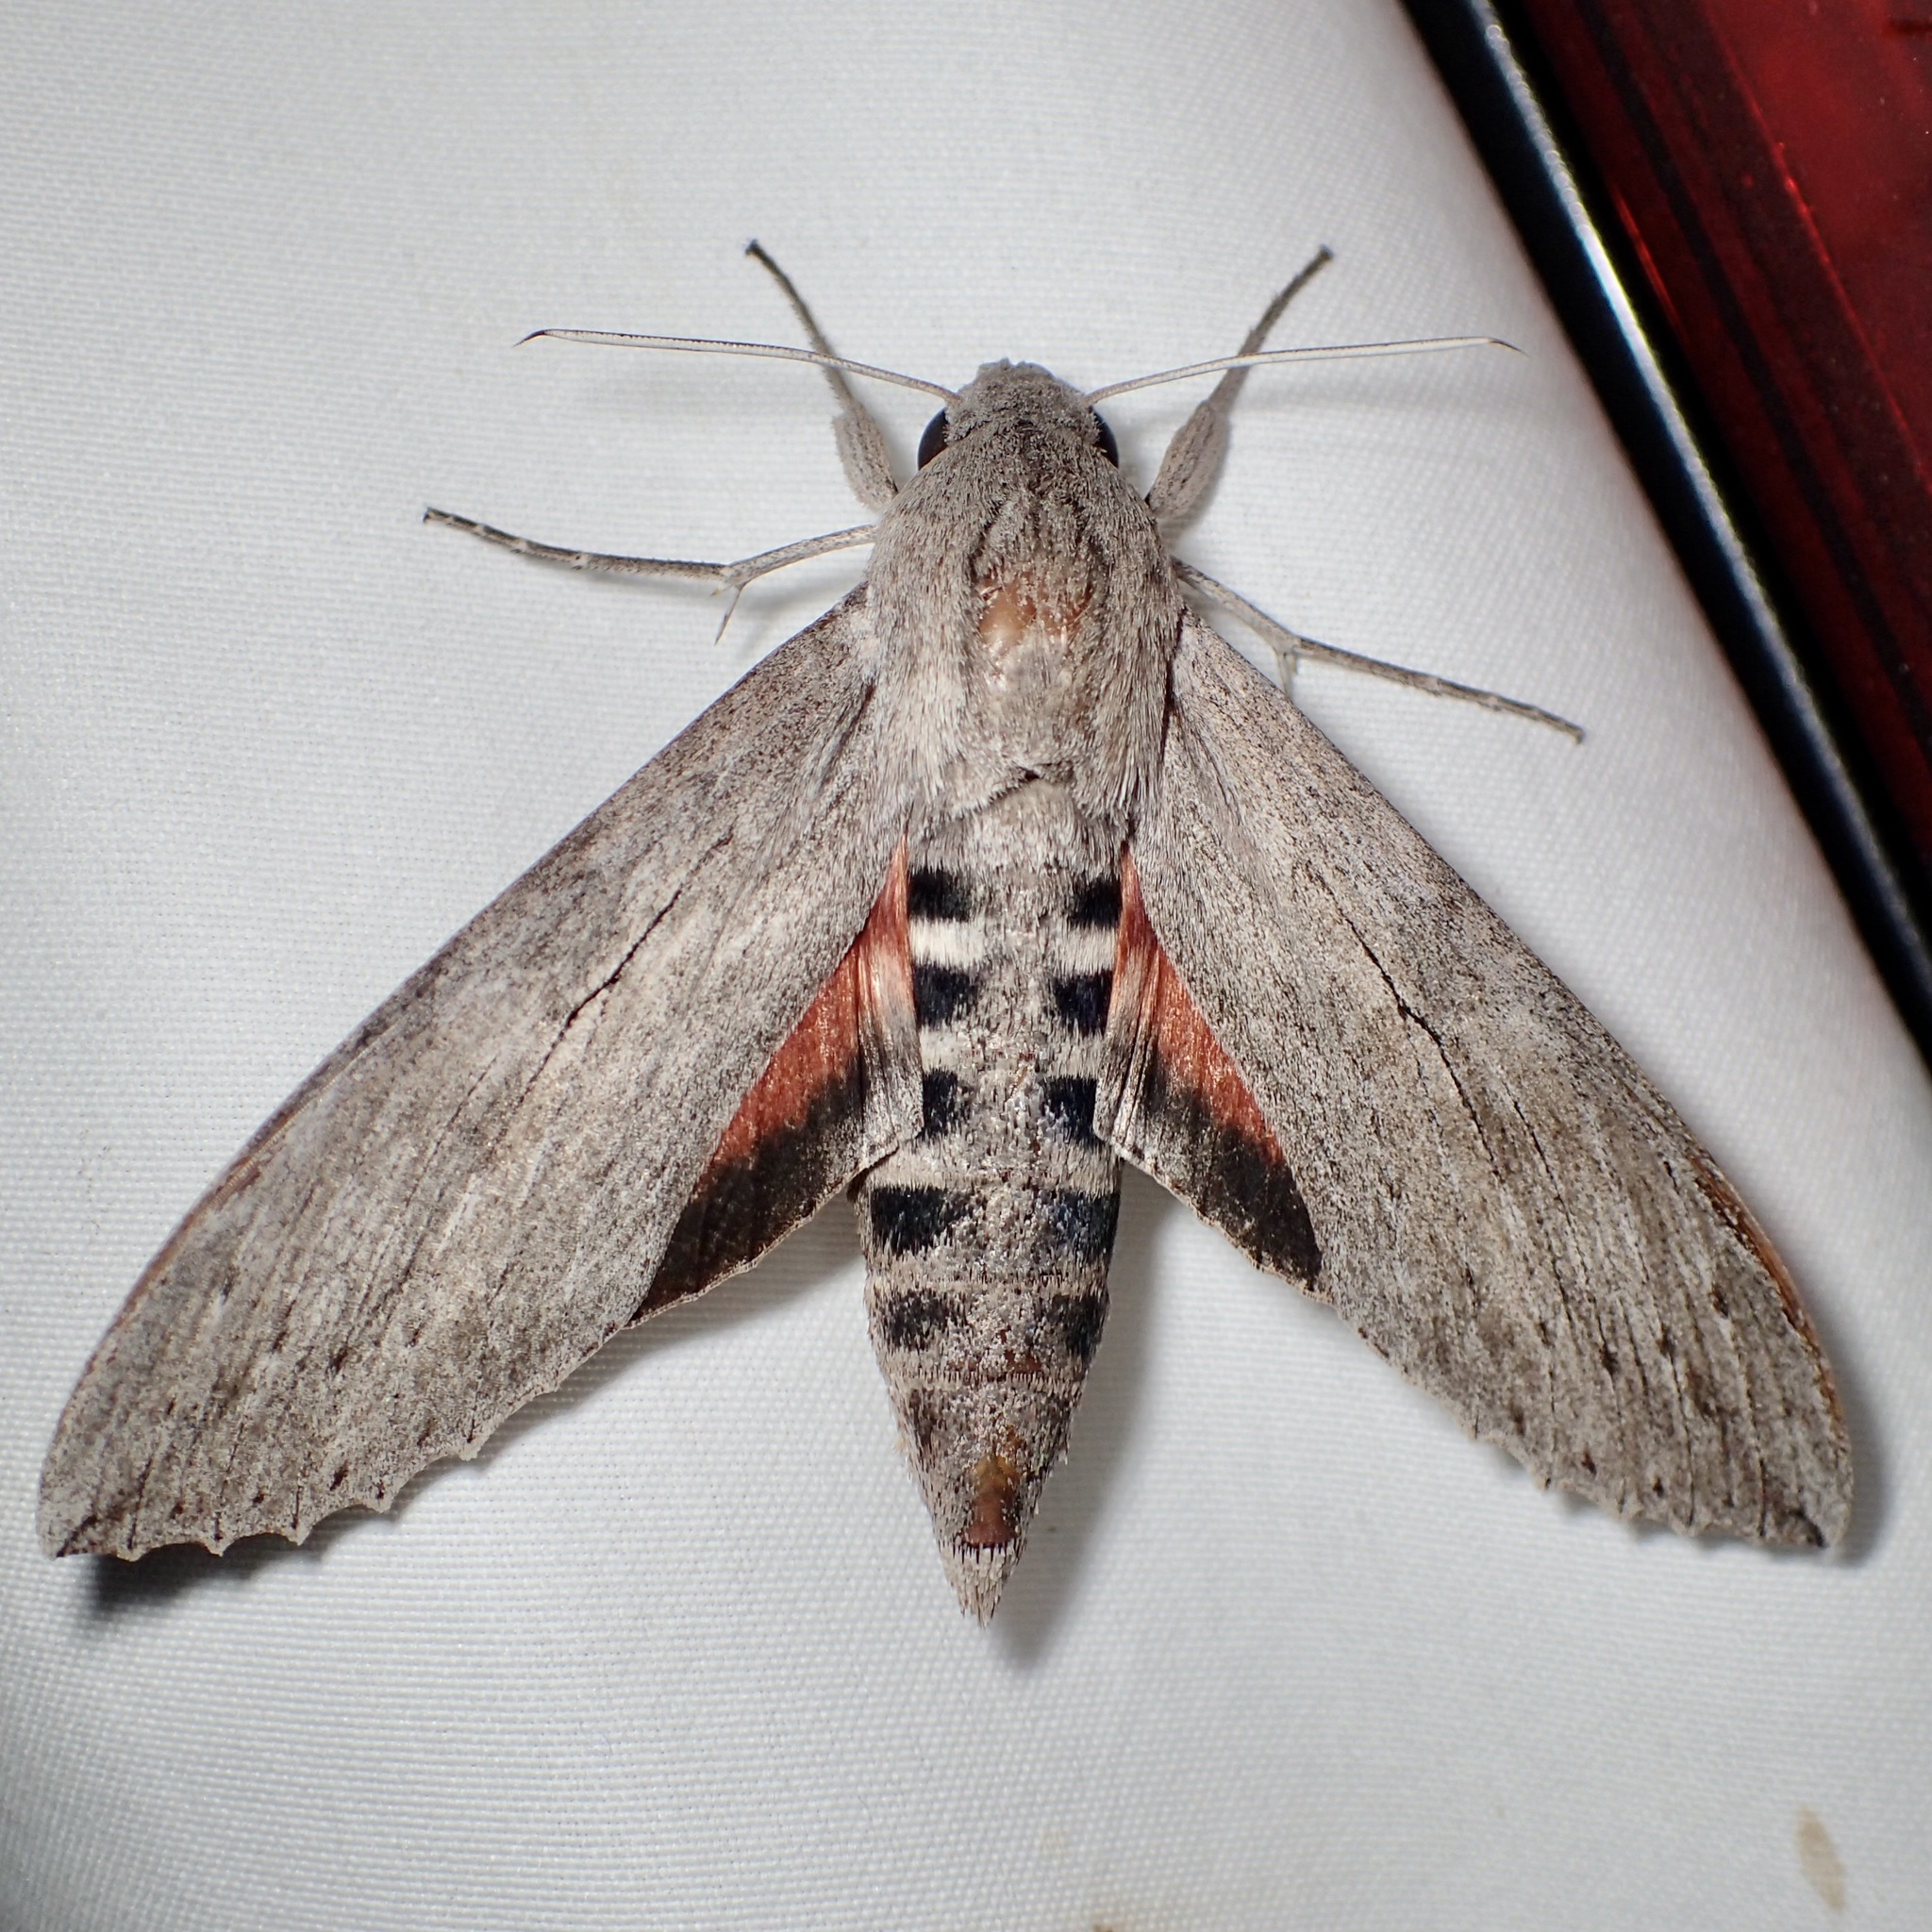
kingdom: Animalia
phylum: Arthropoda
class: Insecta
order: Lepidoptera
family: Sphingidae
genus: Erinnyis
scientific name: Erinnyis ello
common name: Ello sphinx
